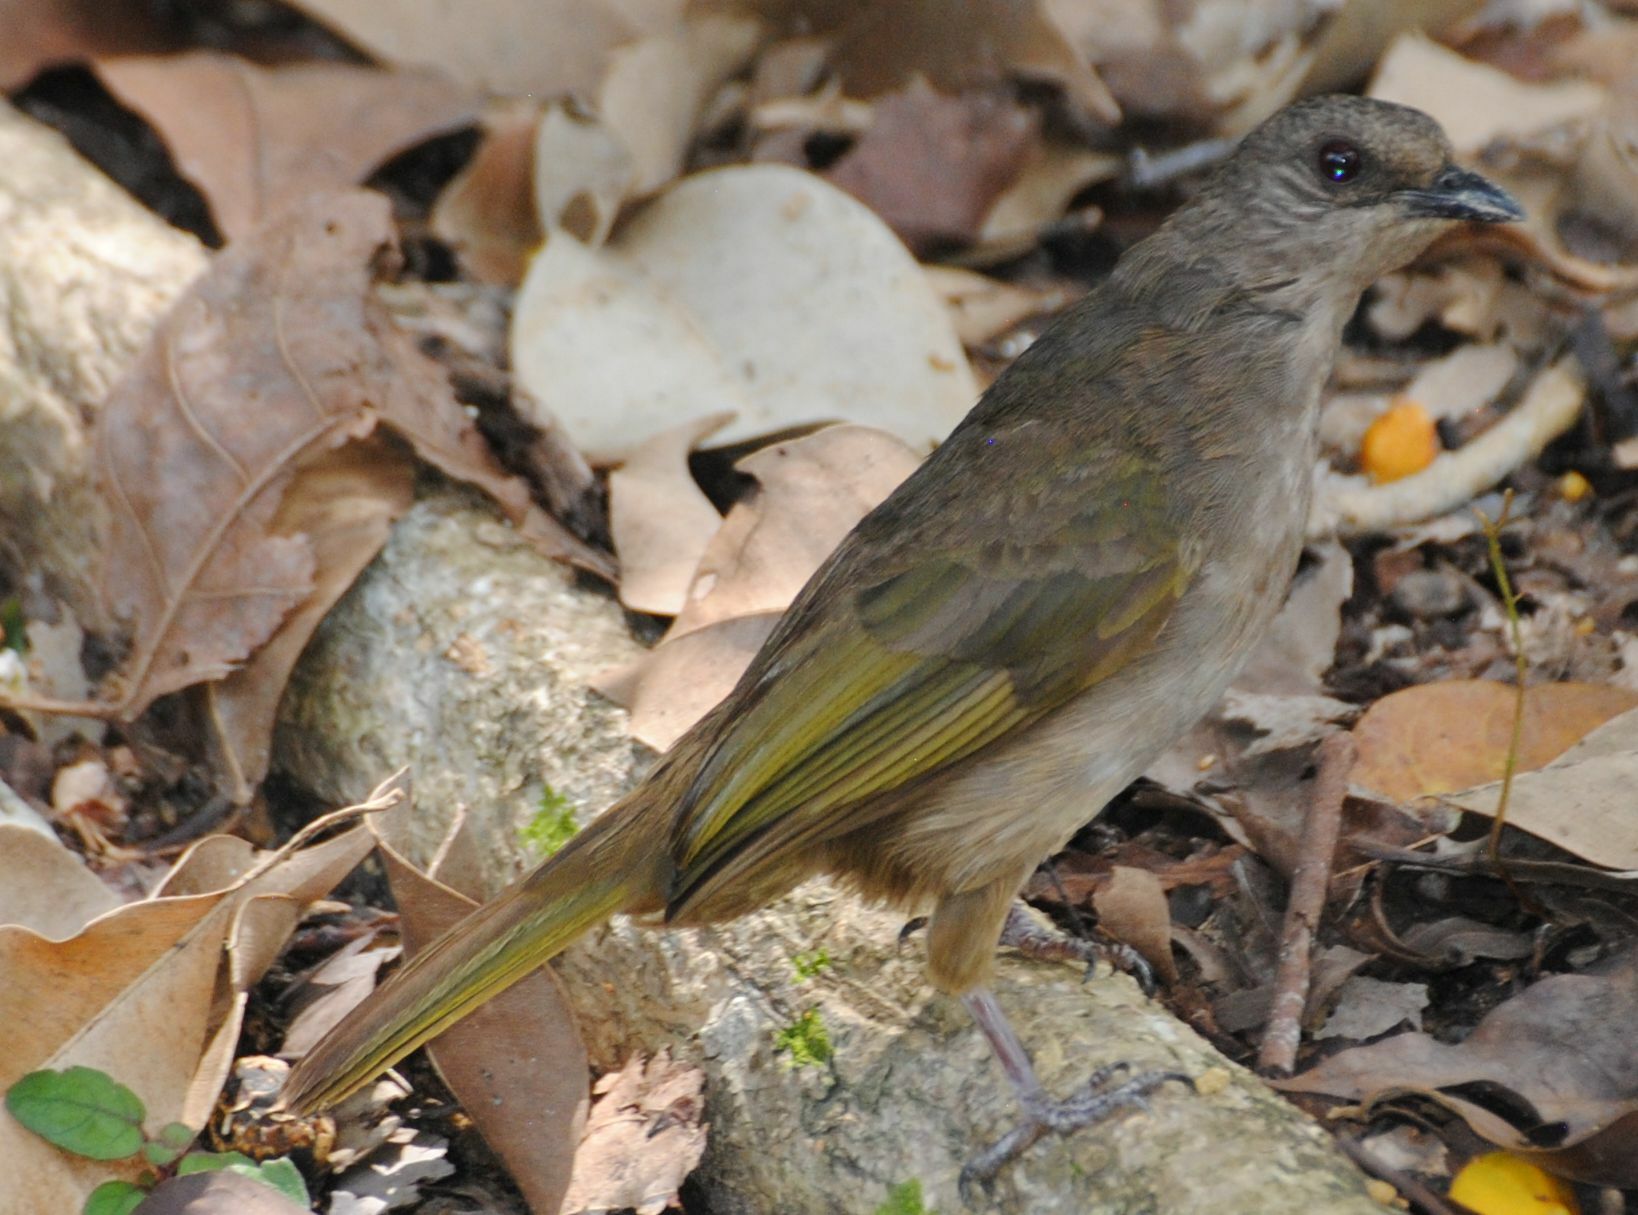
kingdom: Animalia
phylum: Chordata
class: Aves
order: Passeriformes
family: Pycnonotidae
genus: Pycnonotus
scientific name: Pycnonotus plumosus
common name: Olive-winged bulbul
